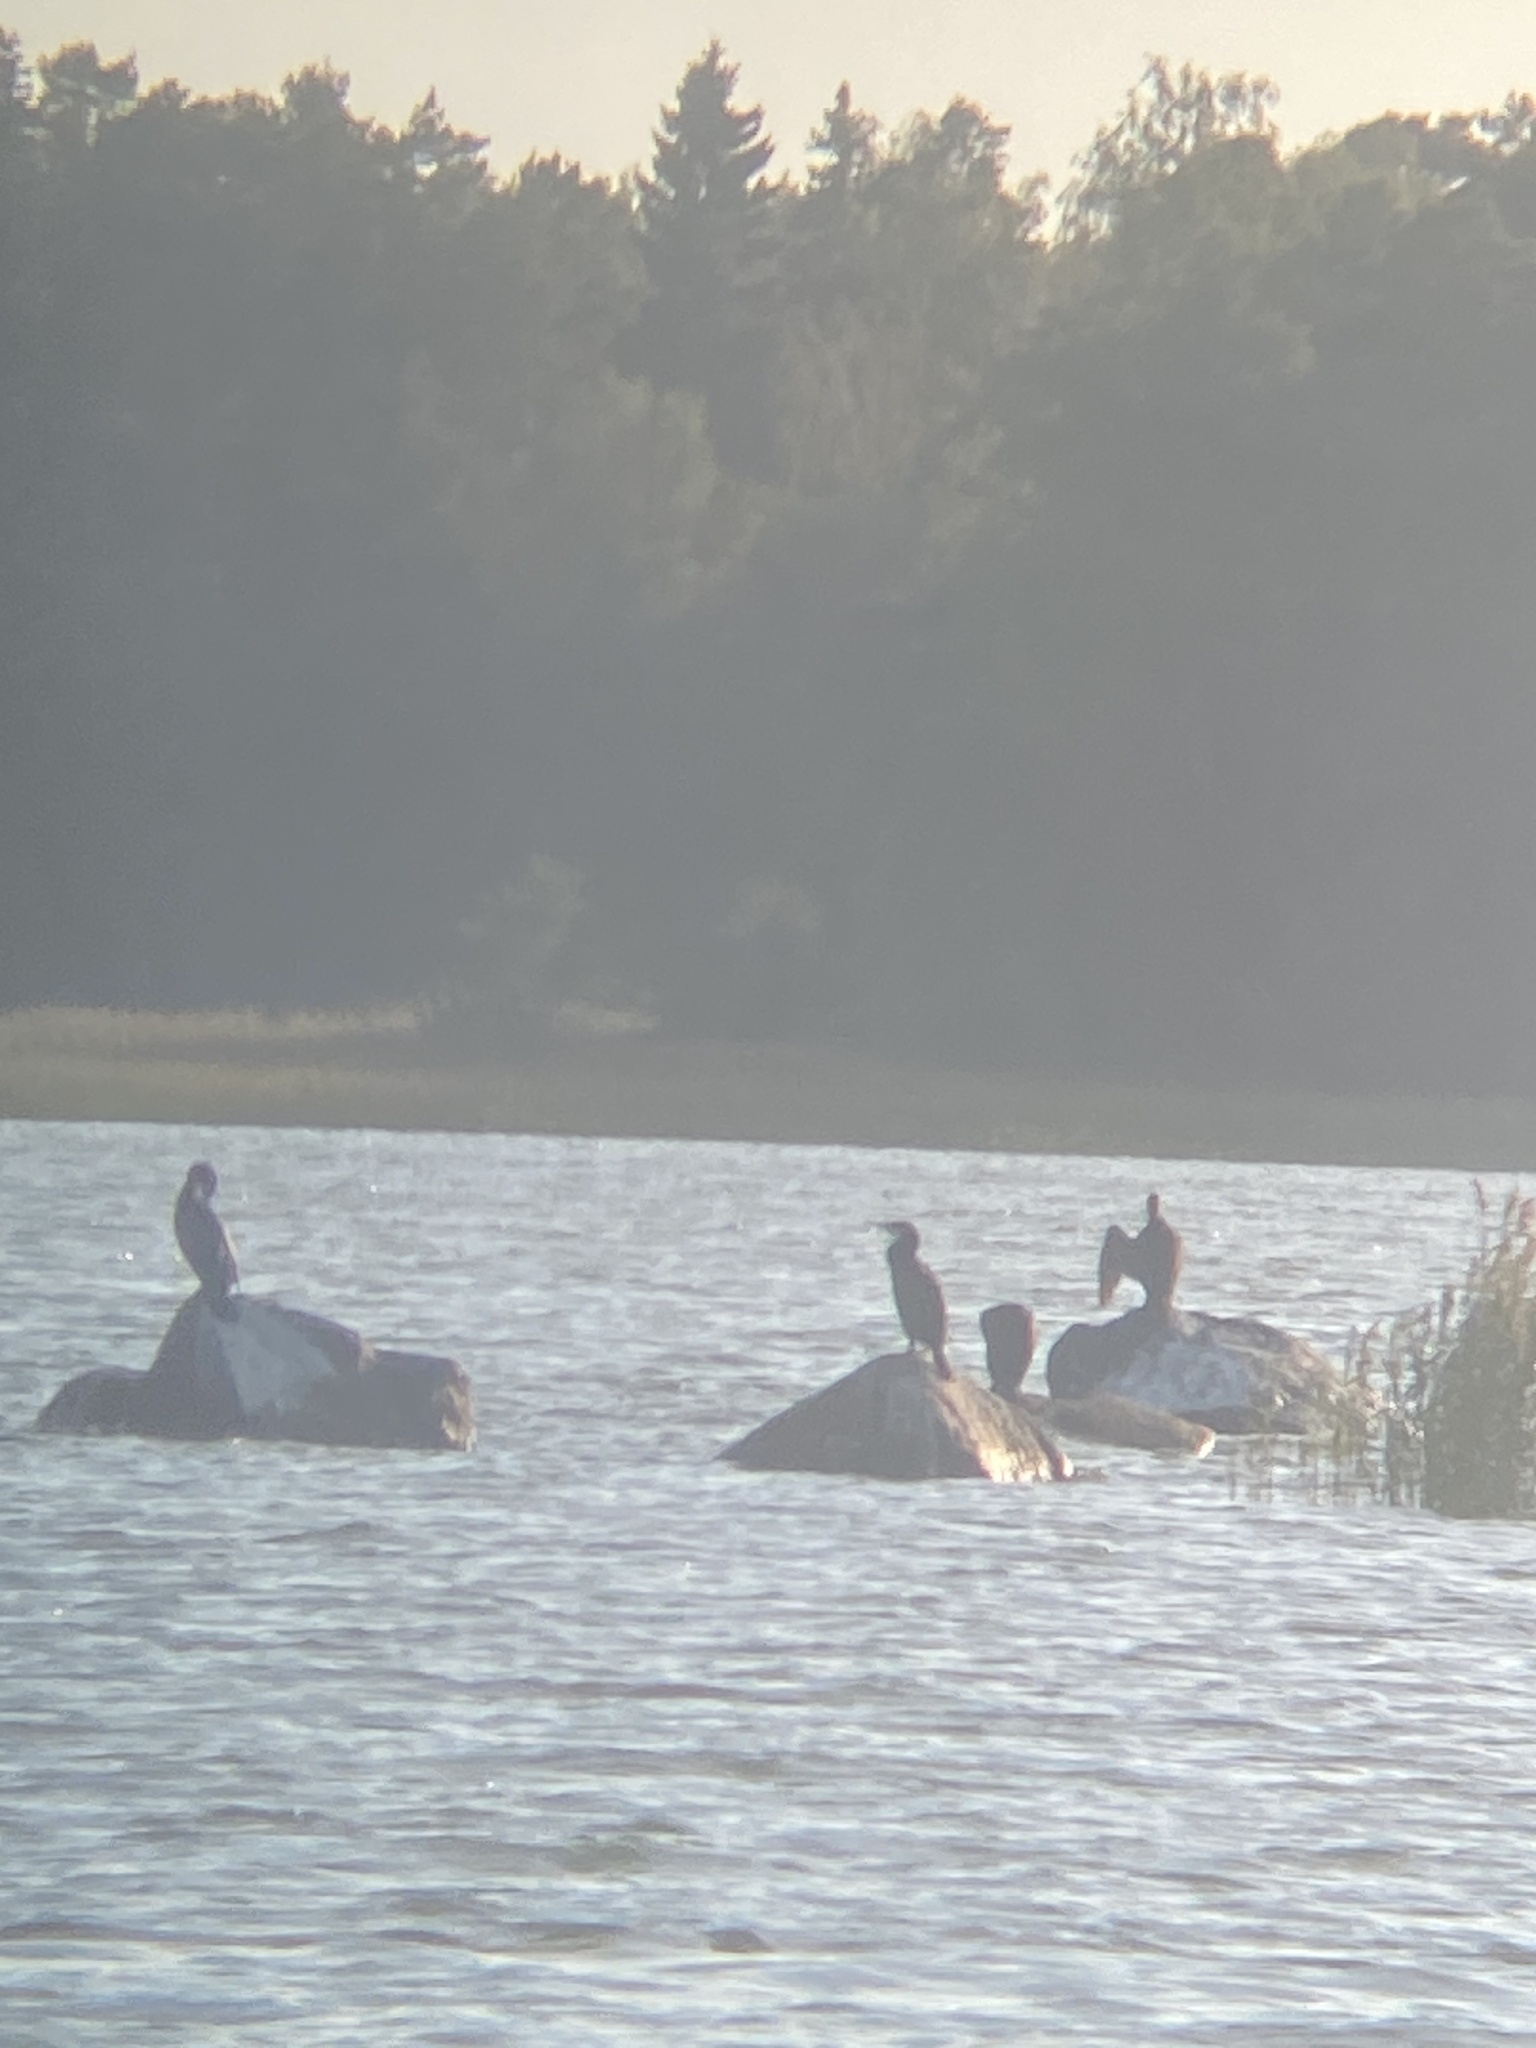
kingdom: Animalia
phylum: Chordata
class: Aves
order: Suliformes
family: Phalacrocoracidae
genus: Phalacrocorax
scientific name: Phalacrocorax carbo
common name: Great cormorant
